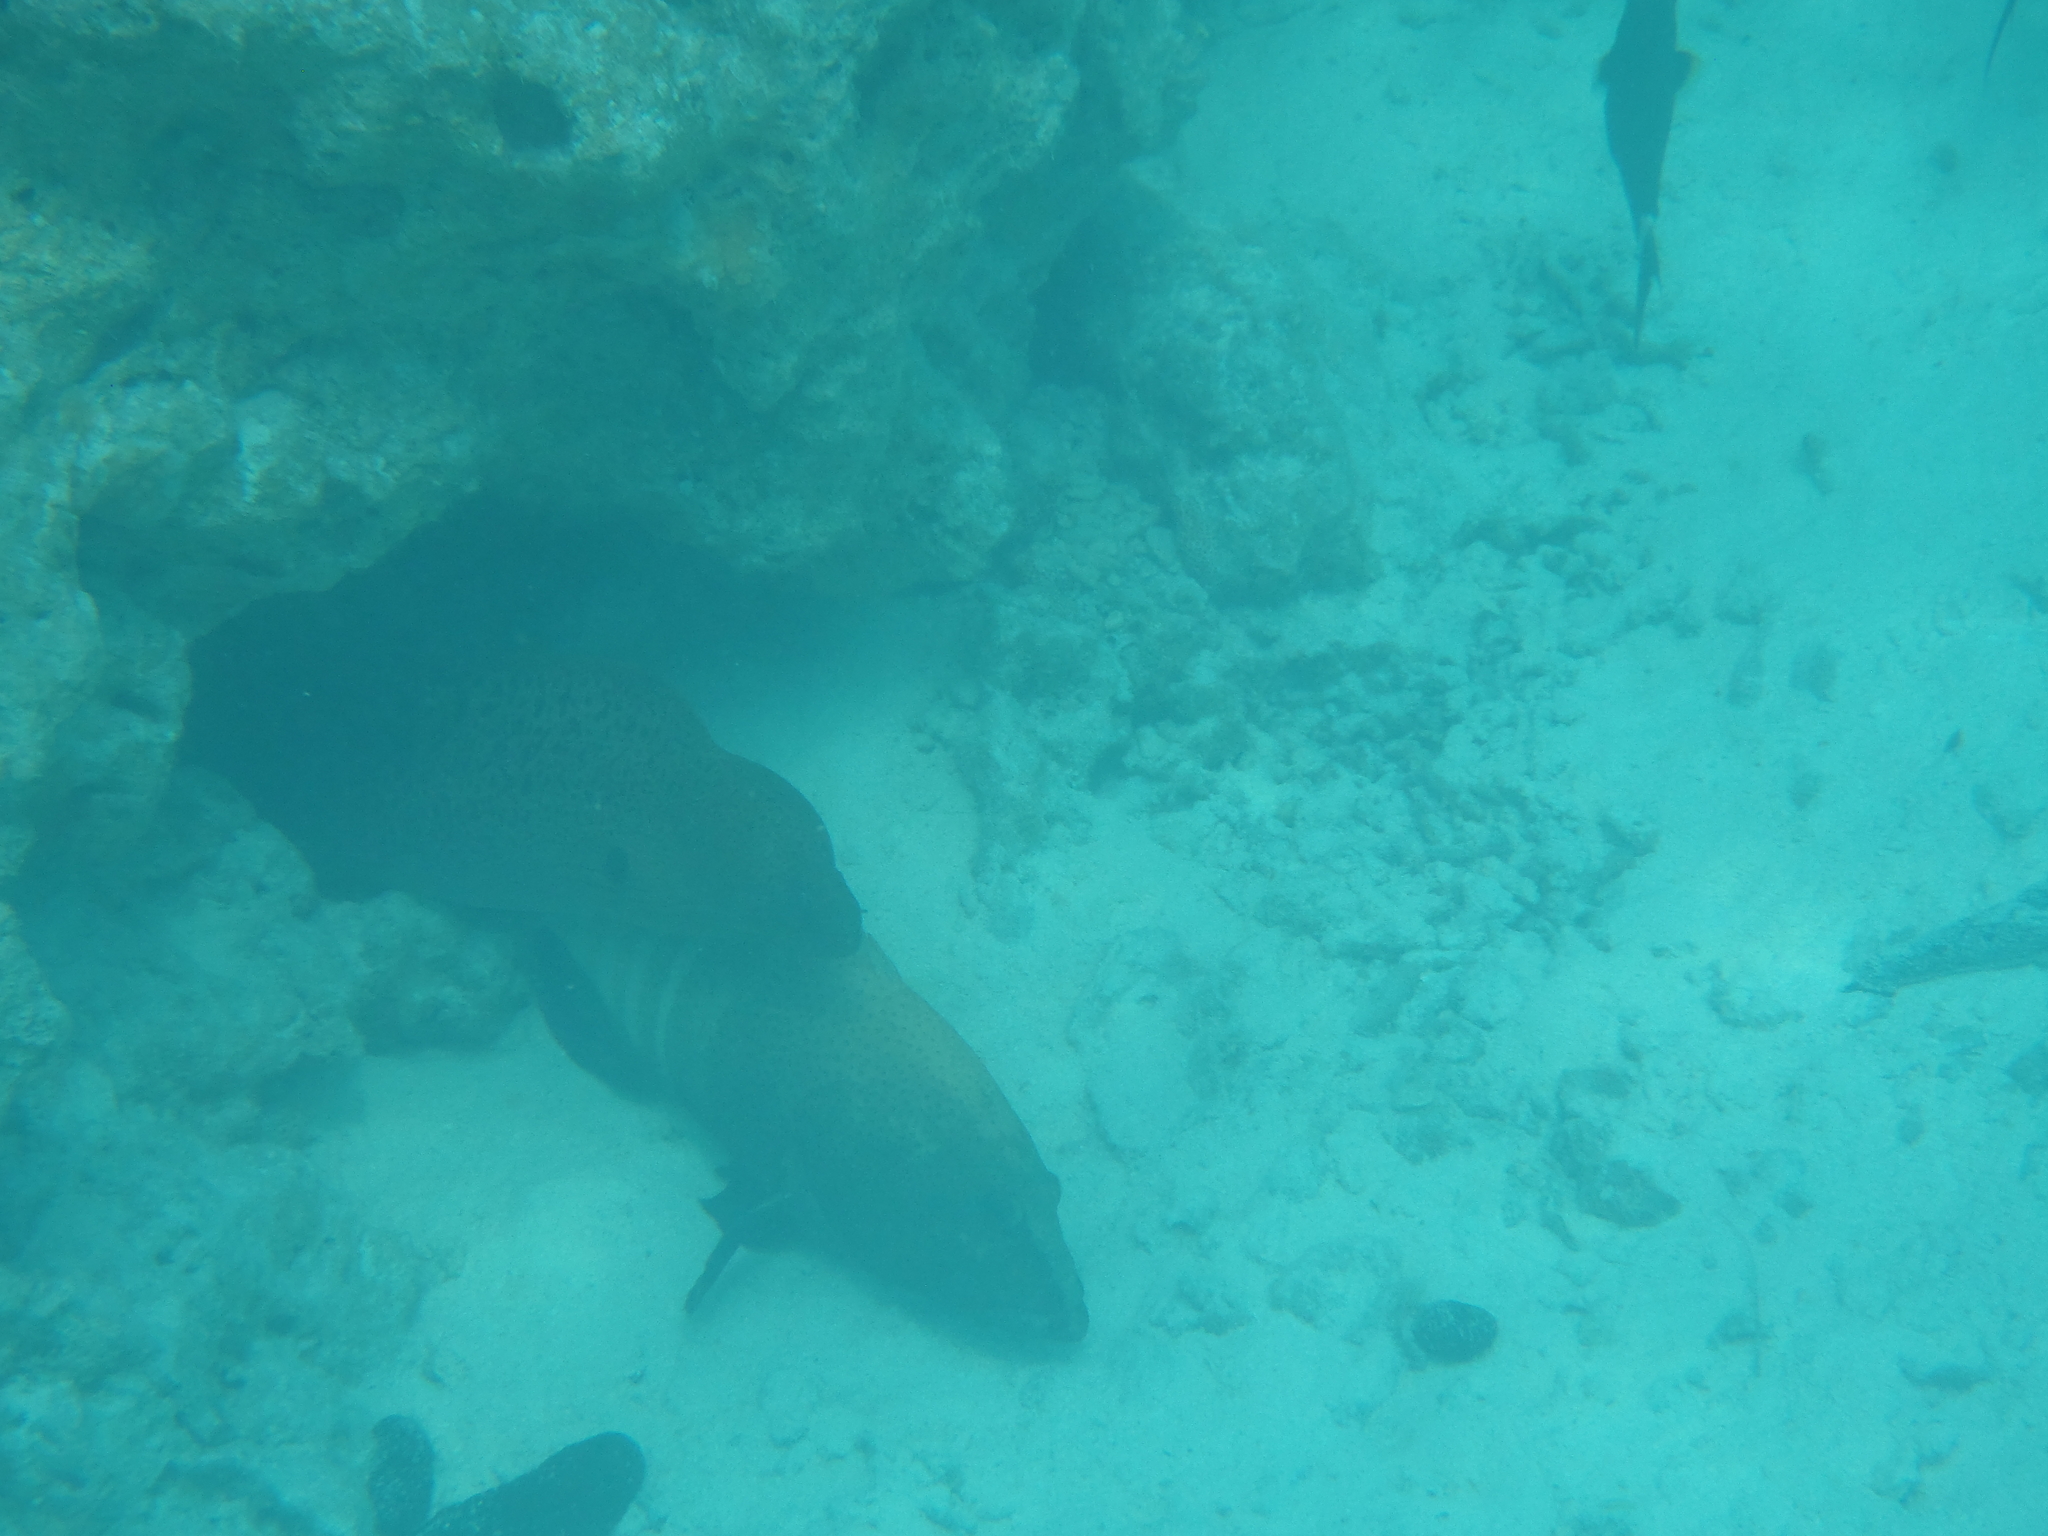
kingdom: Animalia
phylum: Chordata
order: Perciformes
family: Serranidae
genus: Cephalopholis
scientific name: Cephalopholis argus
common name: Peacock grouper
